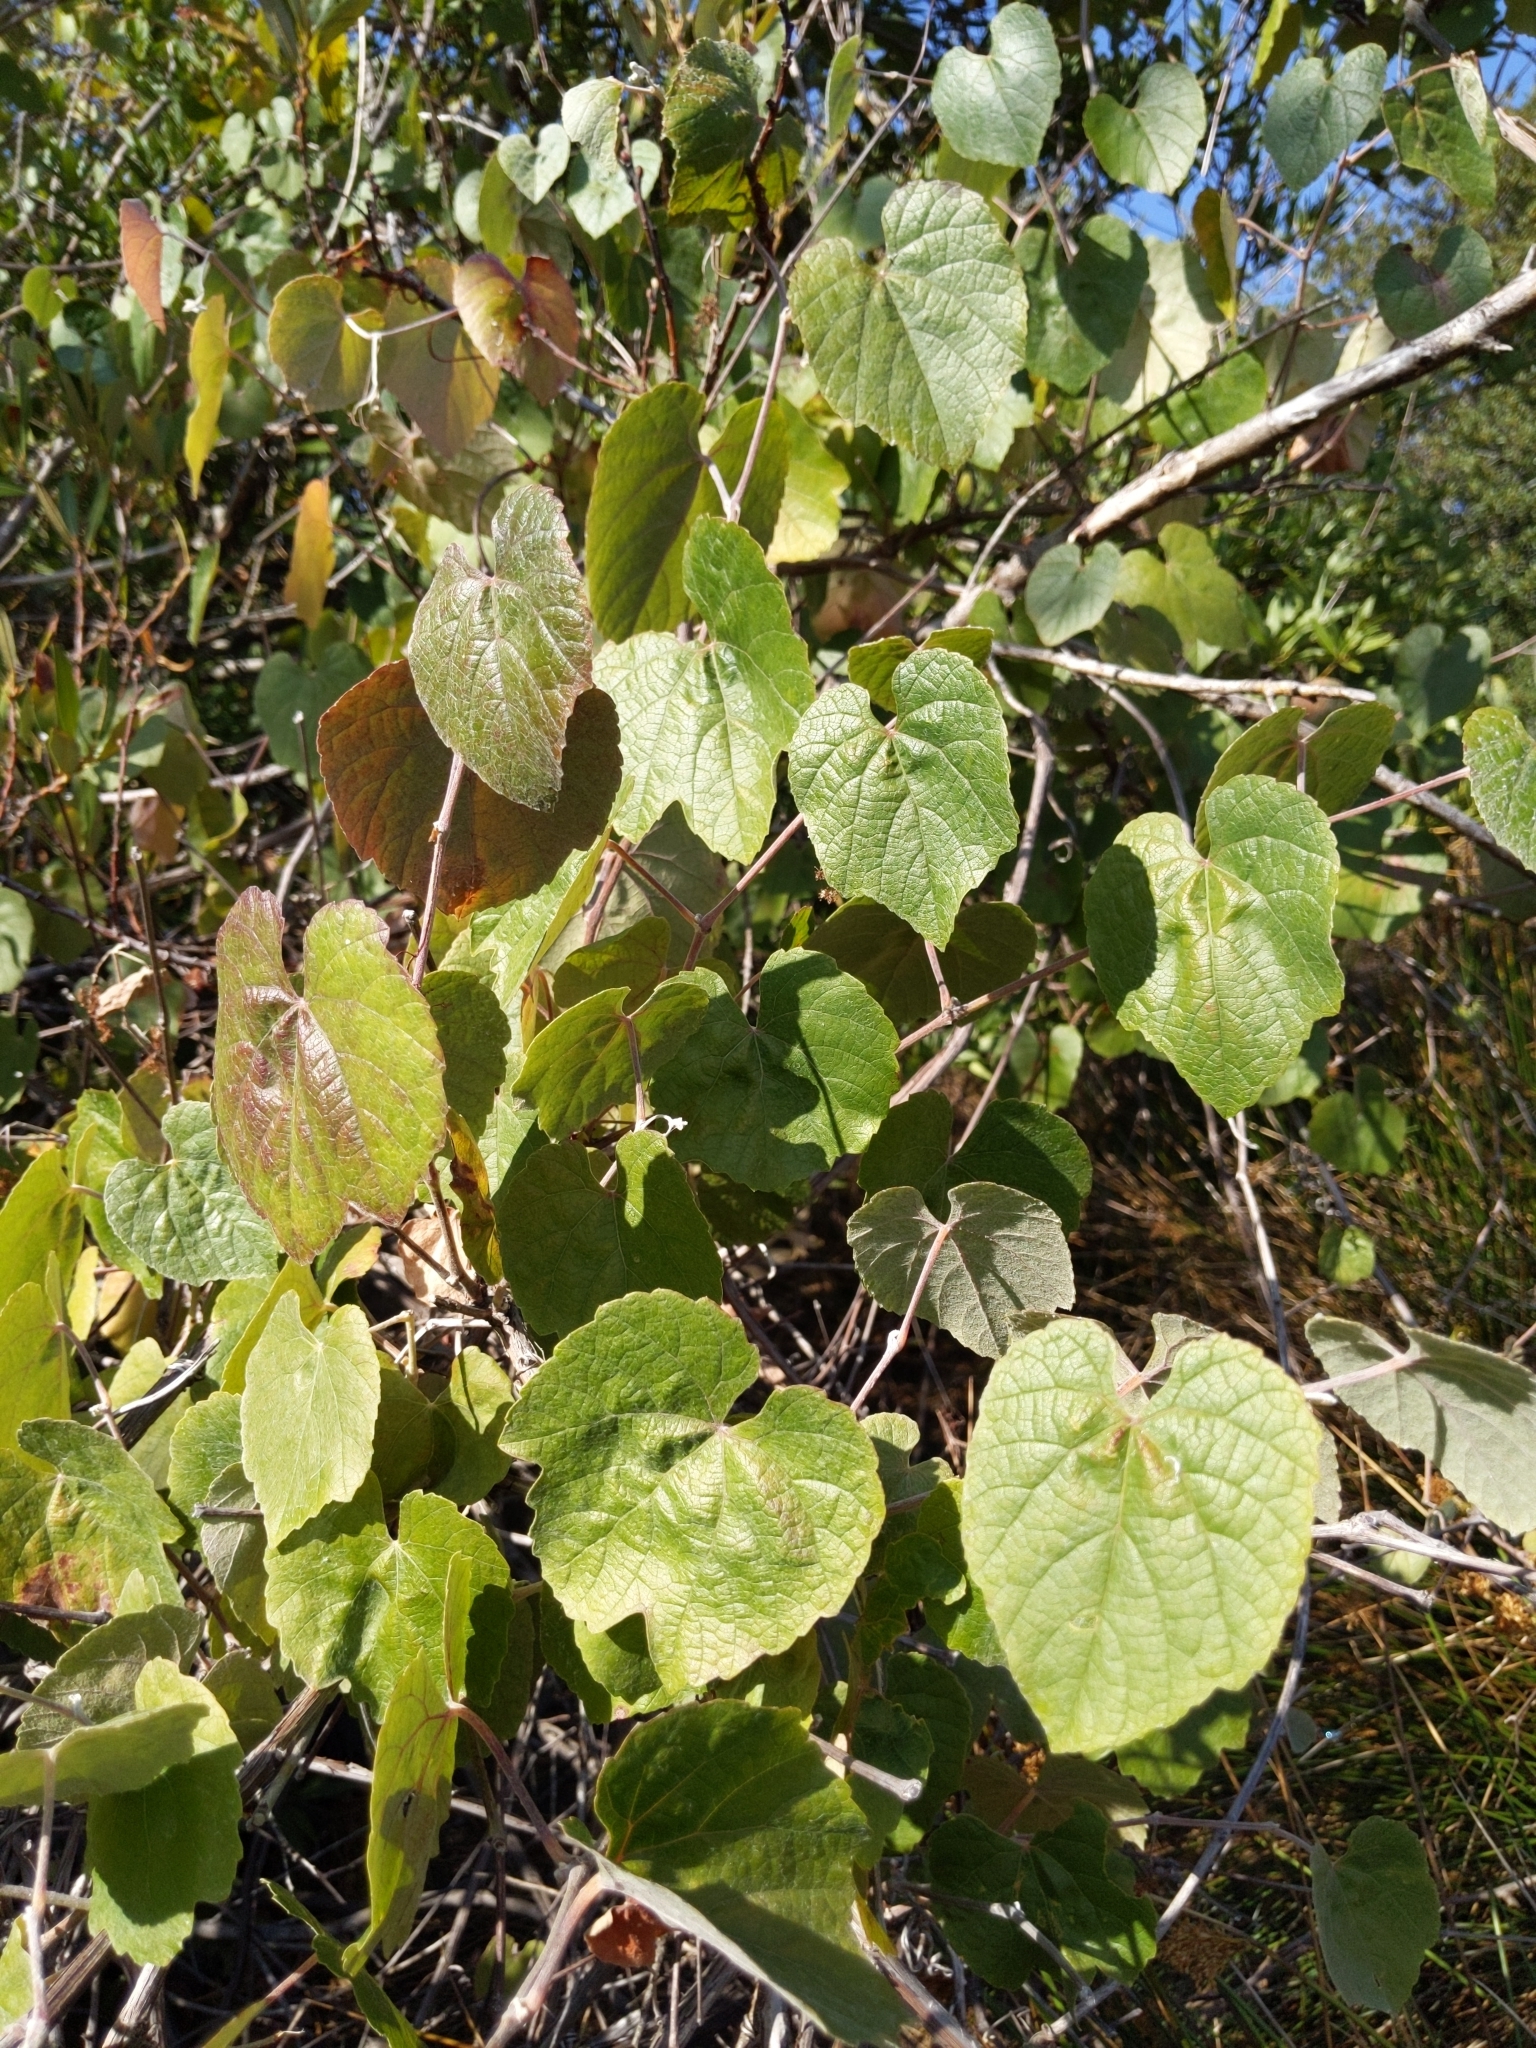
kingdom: Plantae
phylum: Tracheophyta
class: Magnoliopsida
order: Vitales
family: Vitaceae
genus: Vitis
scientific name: Vitis californica
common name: California wild grape
